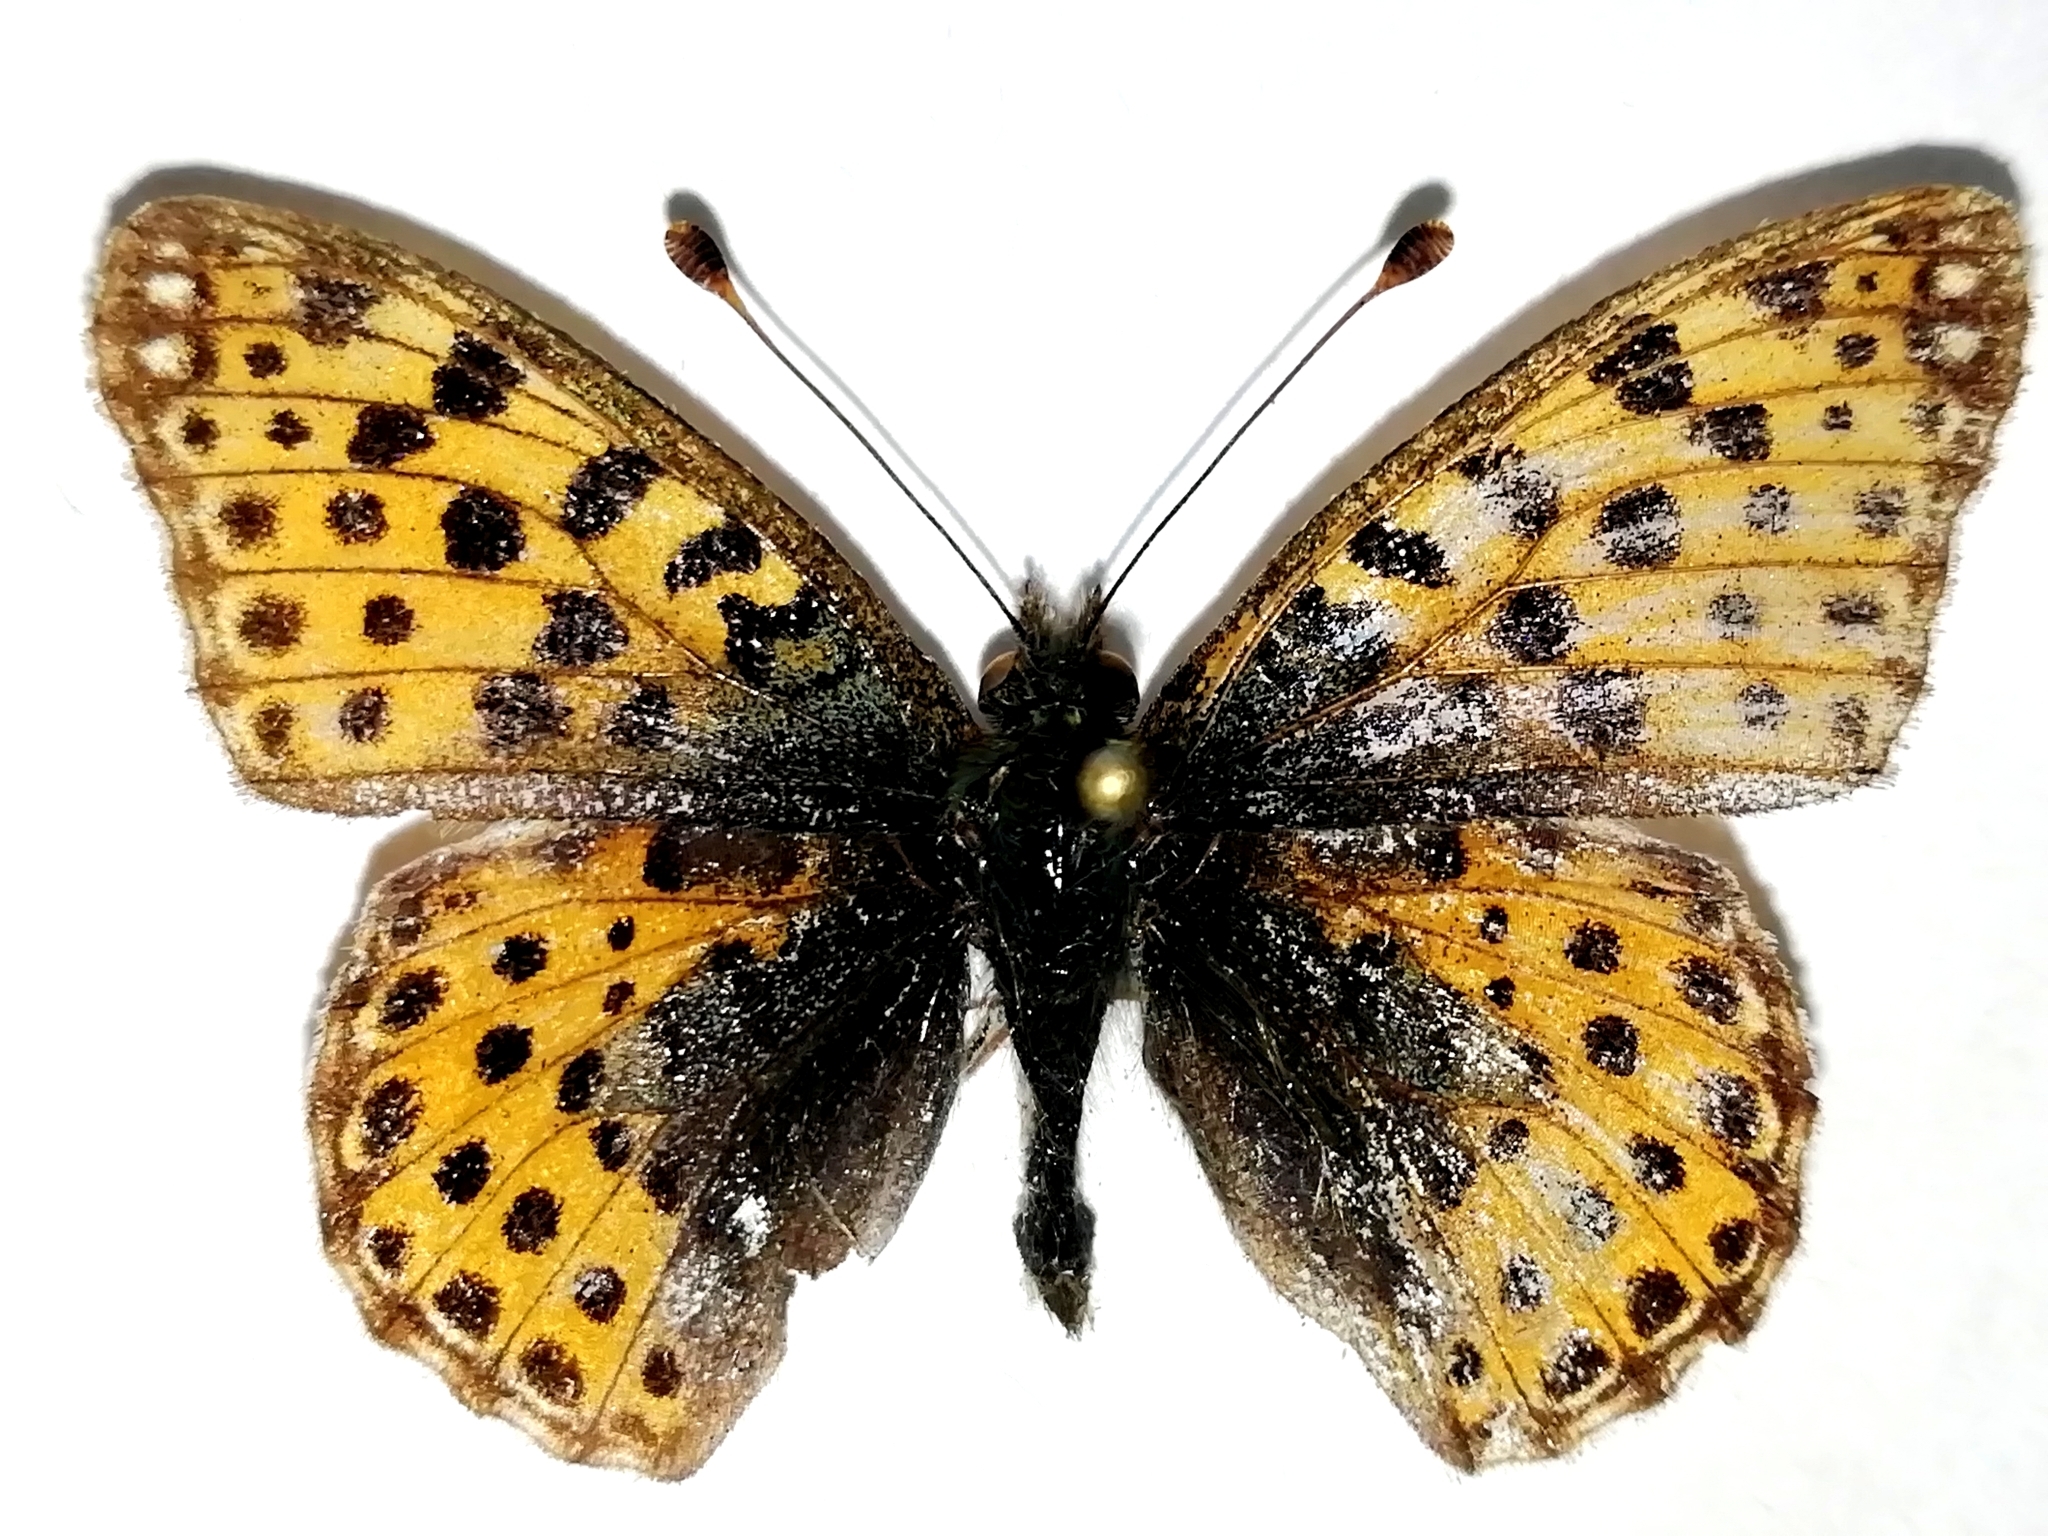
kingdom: Animalia
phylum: Arthropoda
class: Insecta
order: Lepidoptera
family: Nymphalidae
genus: Issoria
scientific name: Issoria lathonia
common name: Queen of spain fritillary
